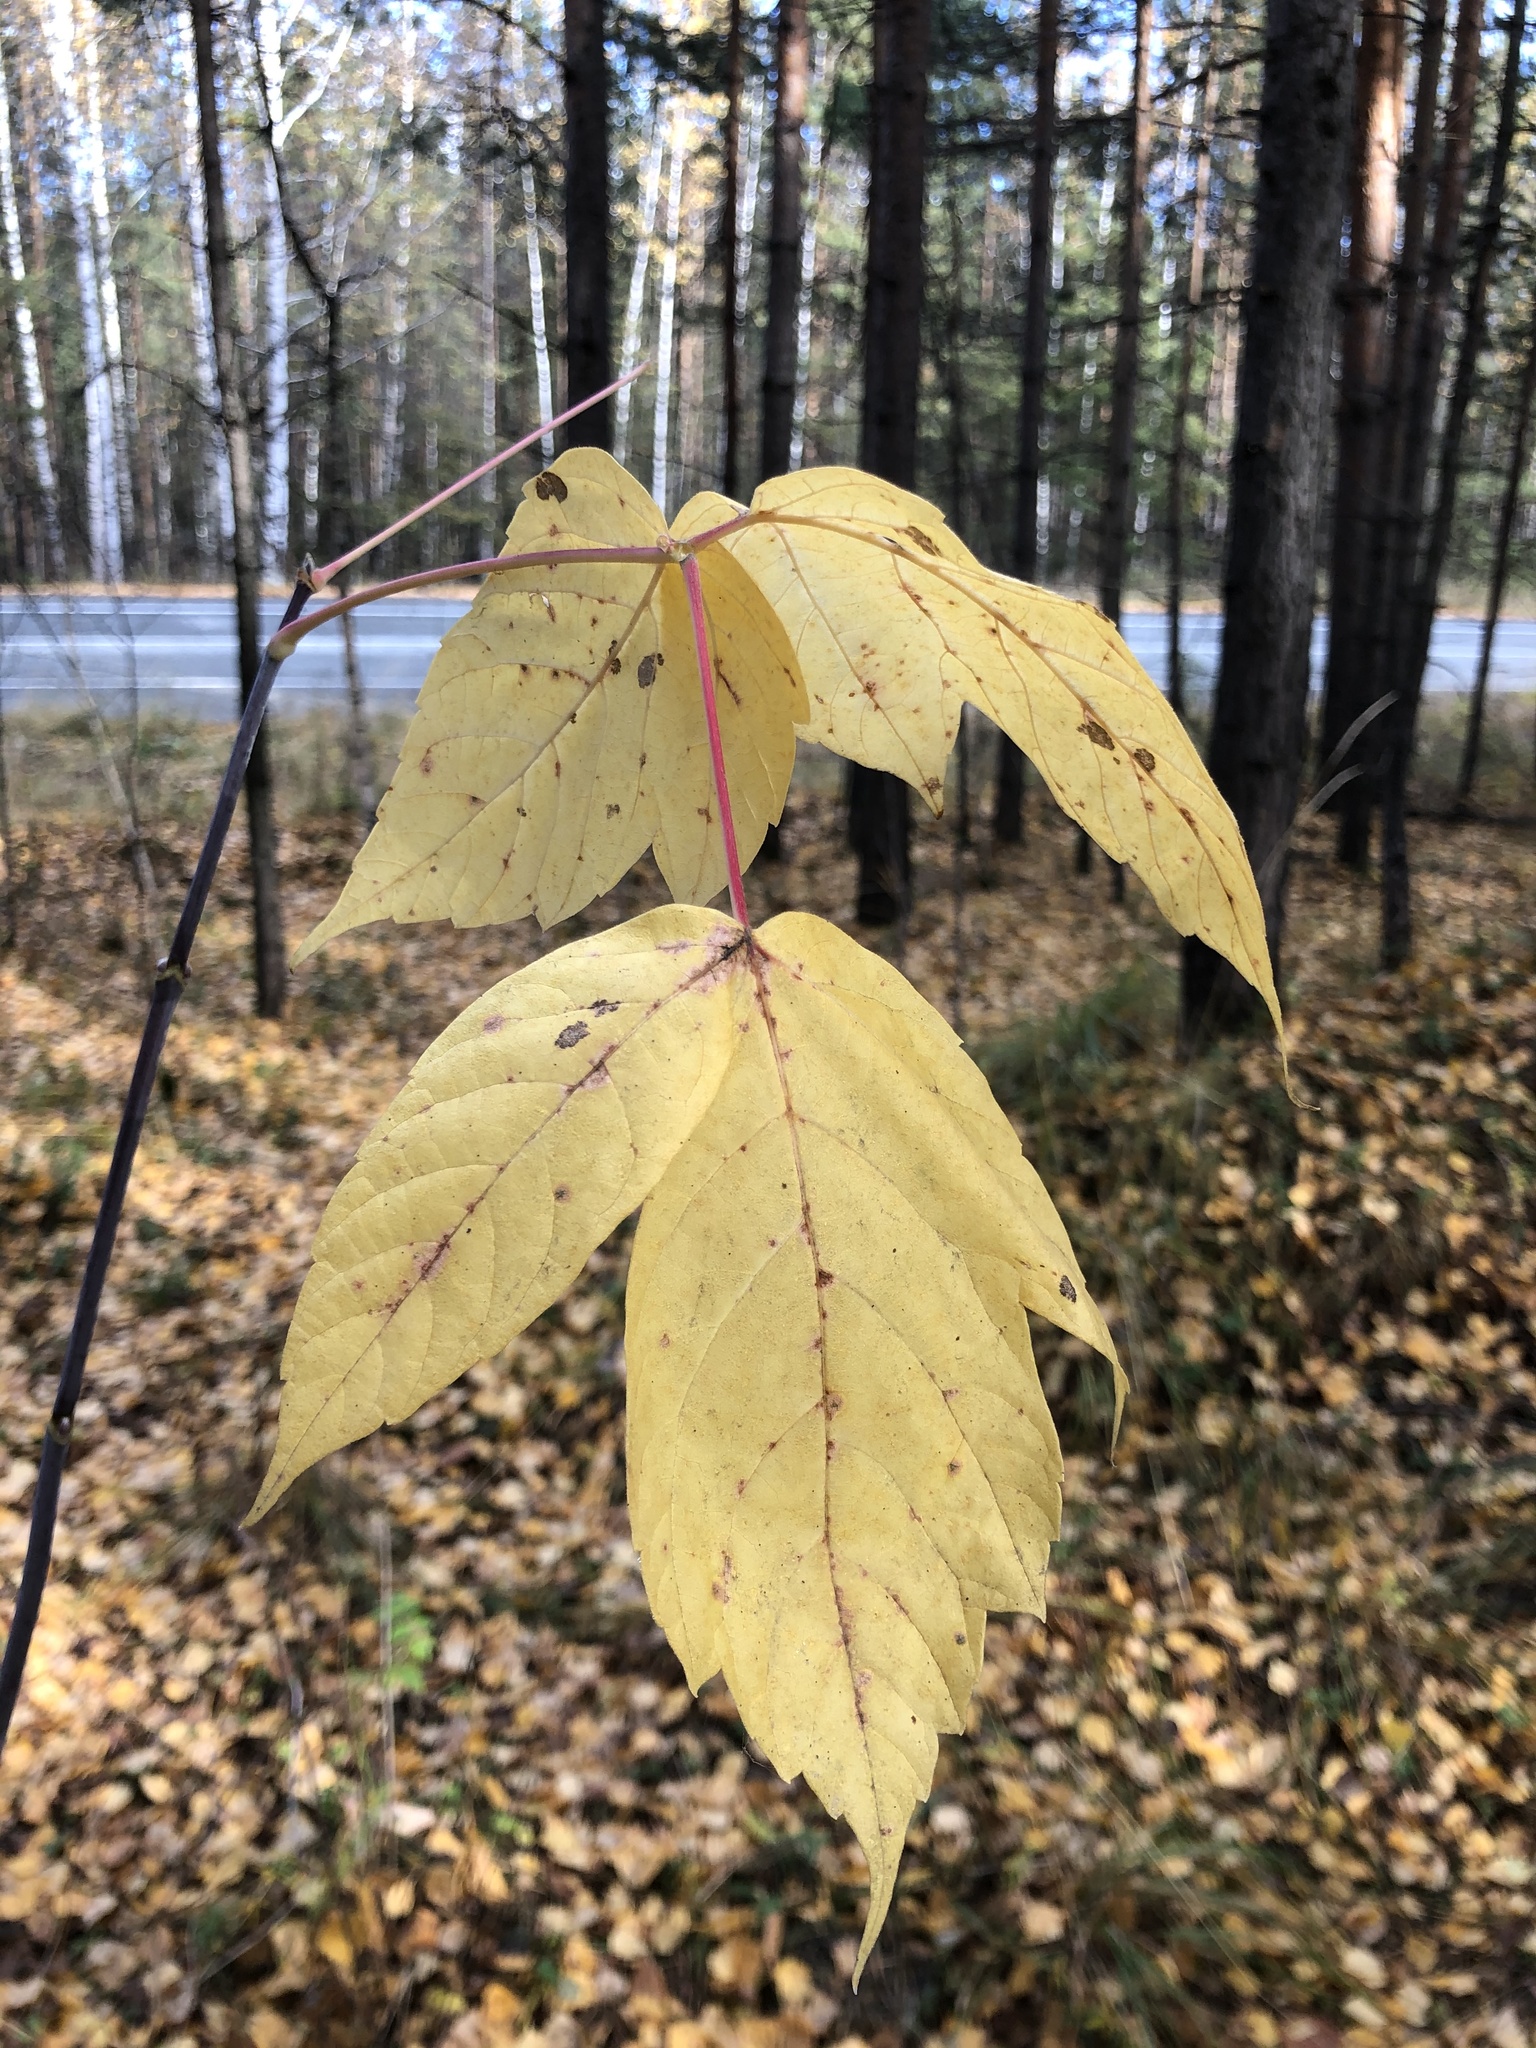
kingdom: Plantae
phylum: Tracheophyta
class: Magnoliopsida
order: Sapindales
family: Sapindaceae
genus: Acer
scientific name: Acer negundo
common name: Ashleaf maple
